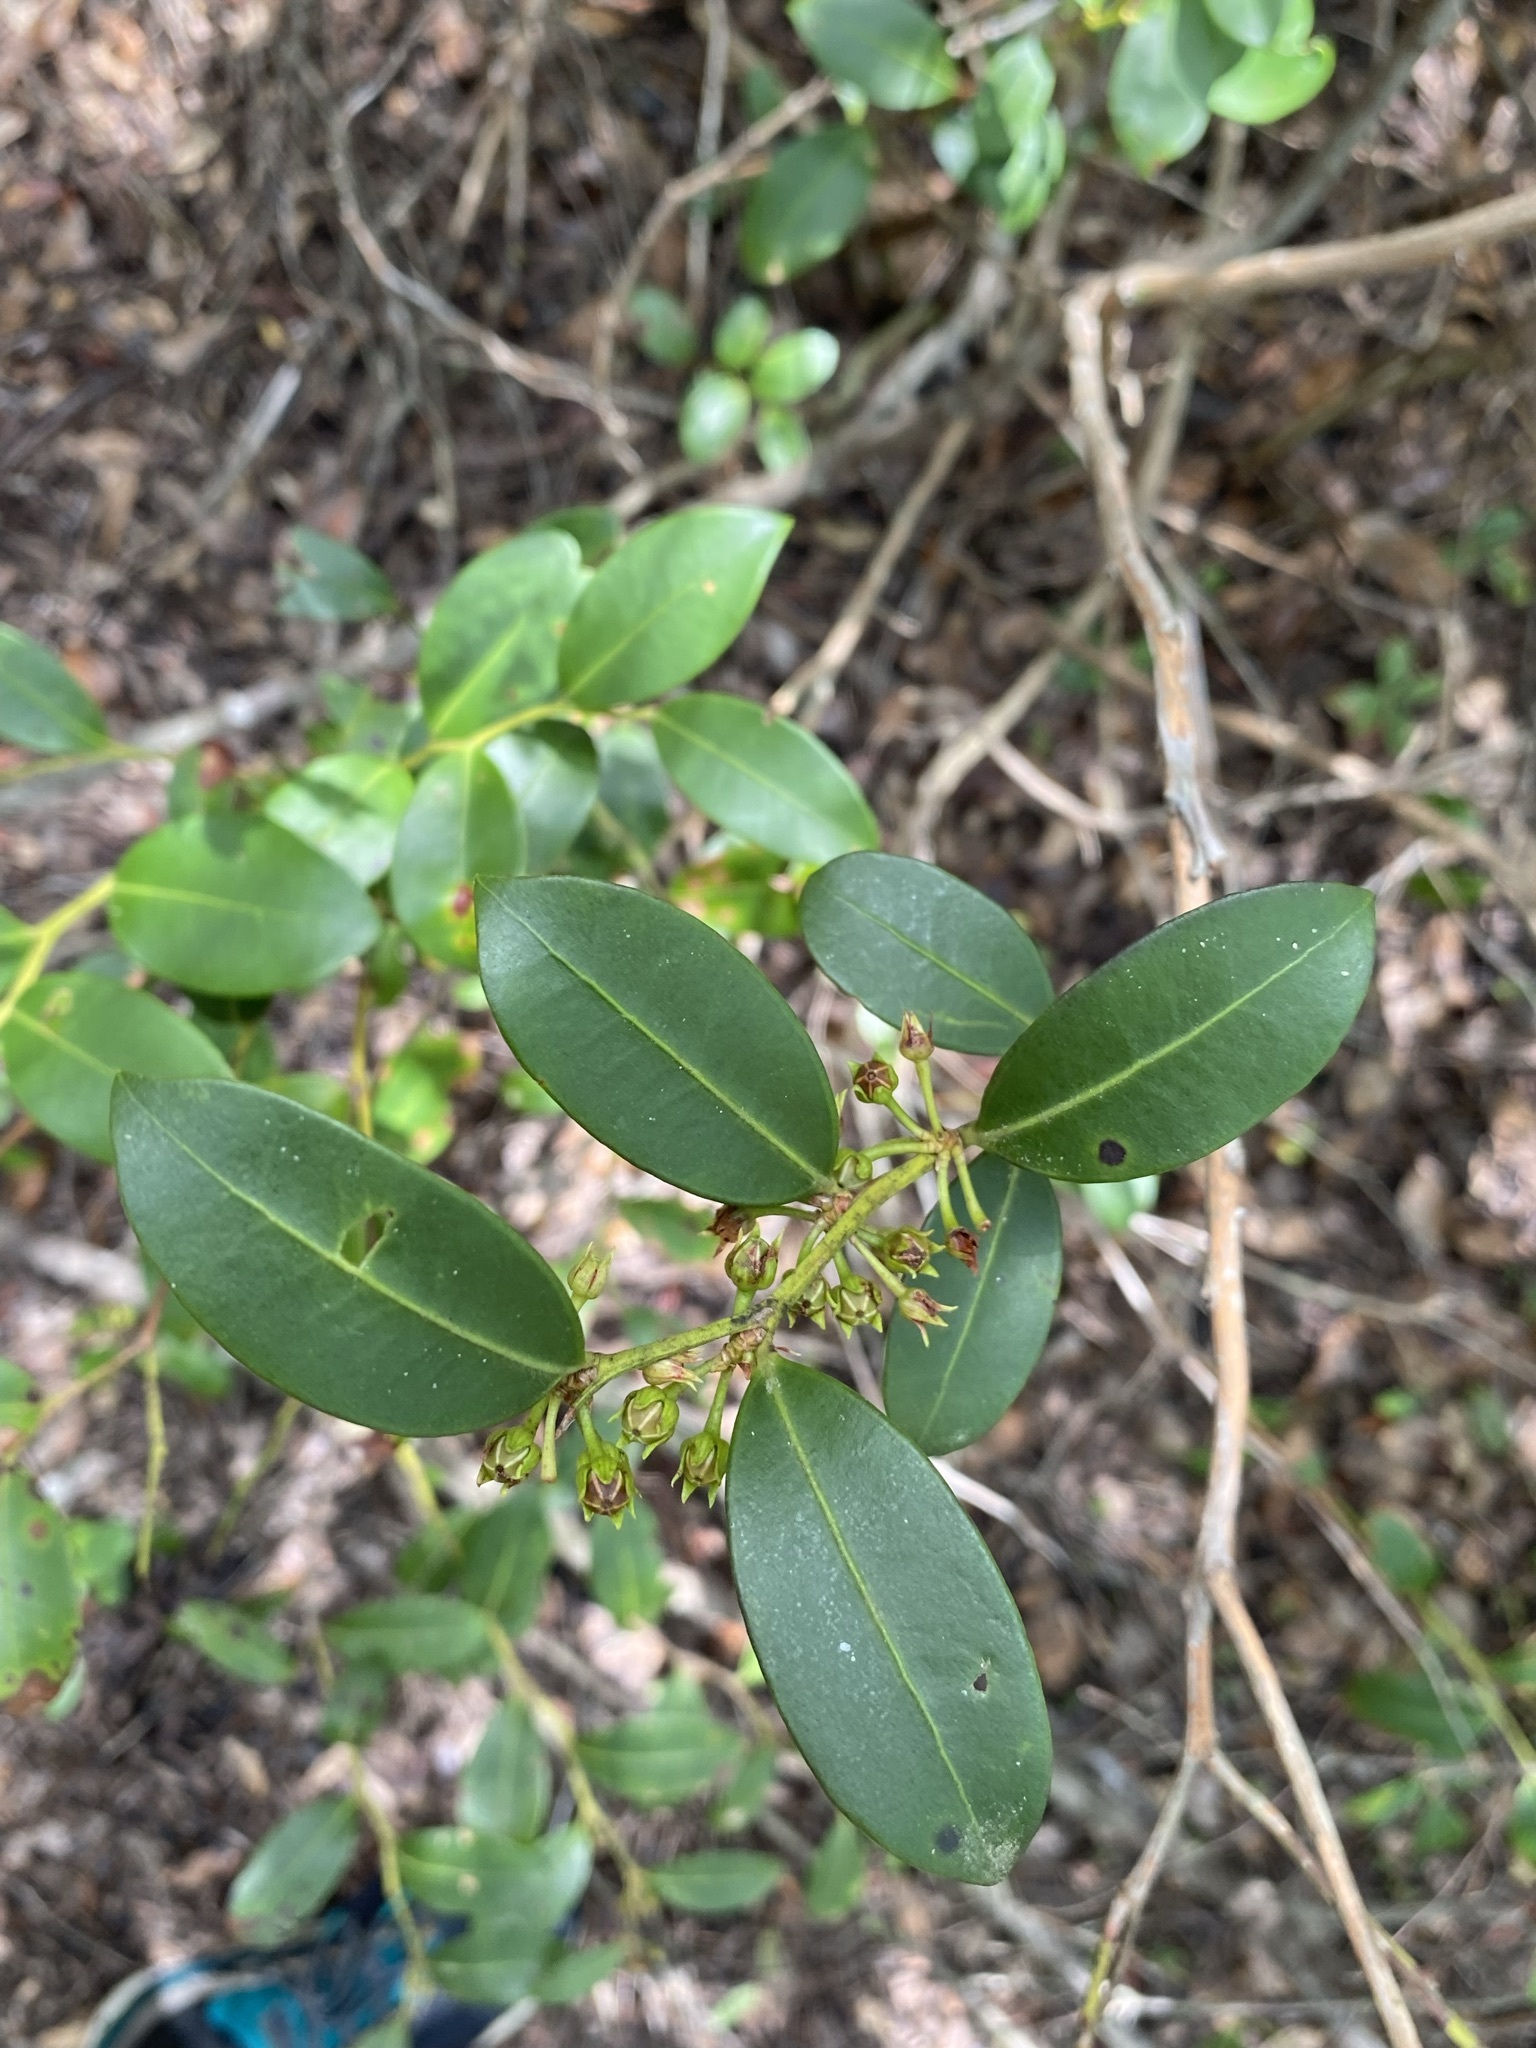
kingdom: Plantae
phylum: Tracheophyta
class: Magnoliopsida
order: Ericales
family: Ericaceae
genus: Lyonia
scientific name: Lyonia lucida
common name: Fetterbush
